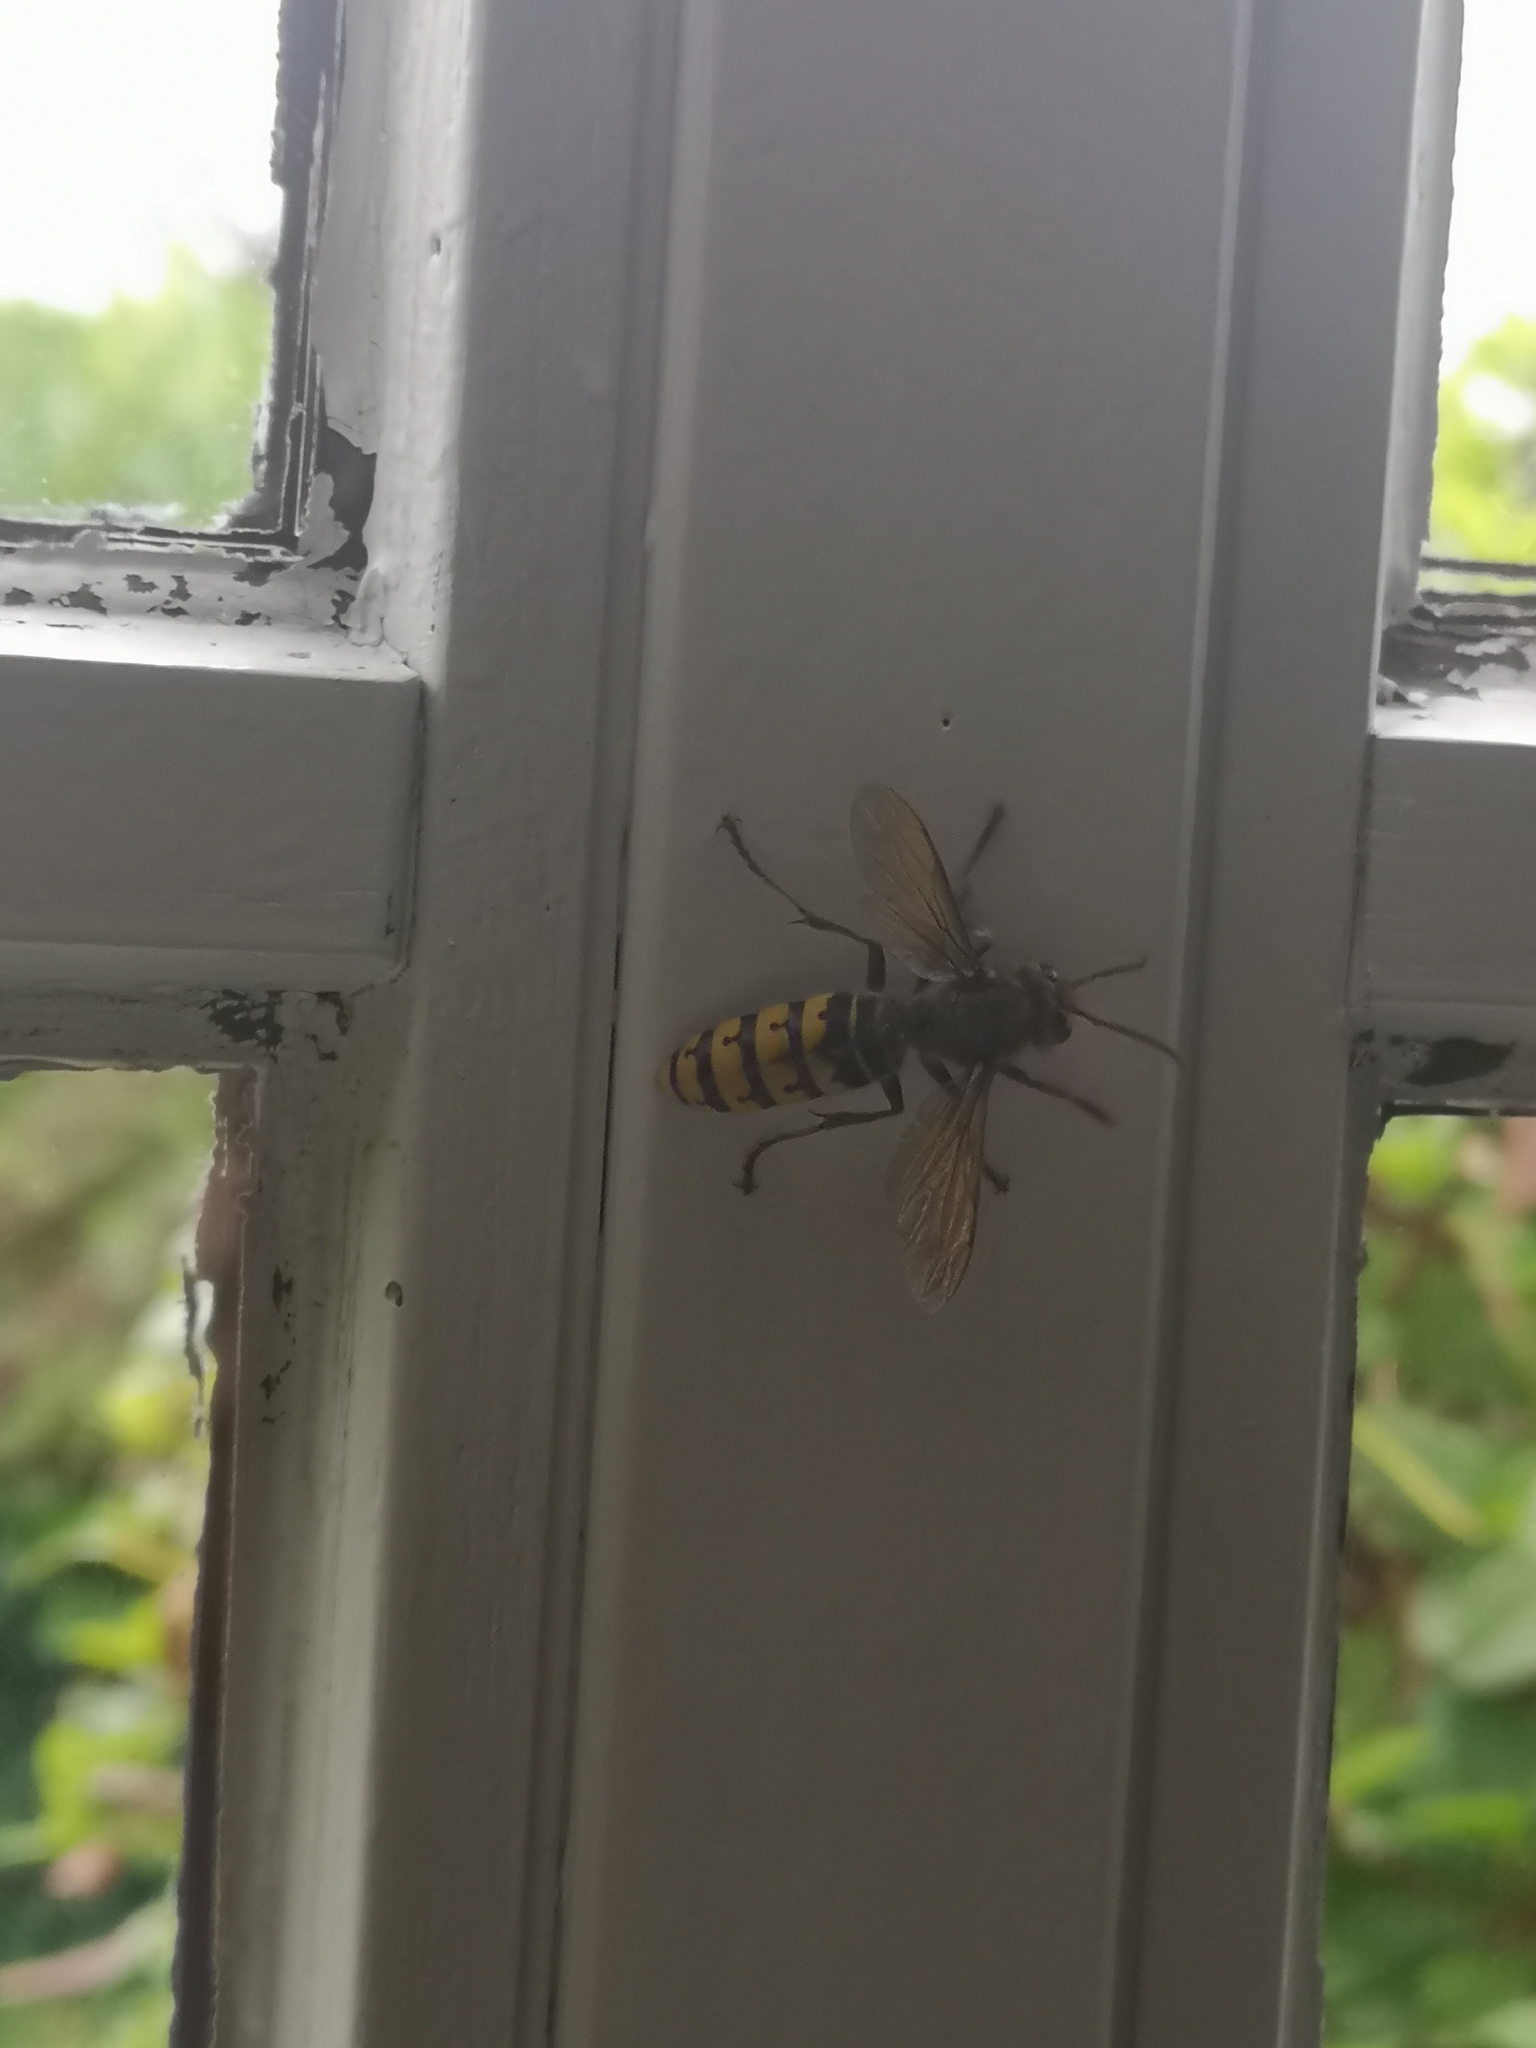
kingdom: Animalia
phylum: Arthropoda
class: Insecta
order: Hymenoptera
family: Vespidae
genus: Vespa
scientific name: Vespa crabro
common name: Hornet
